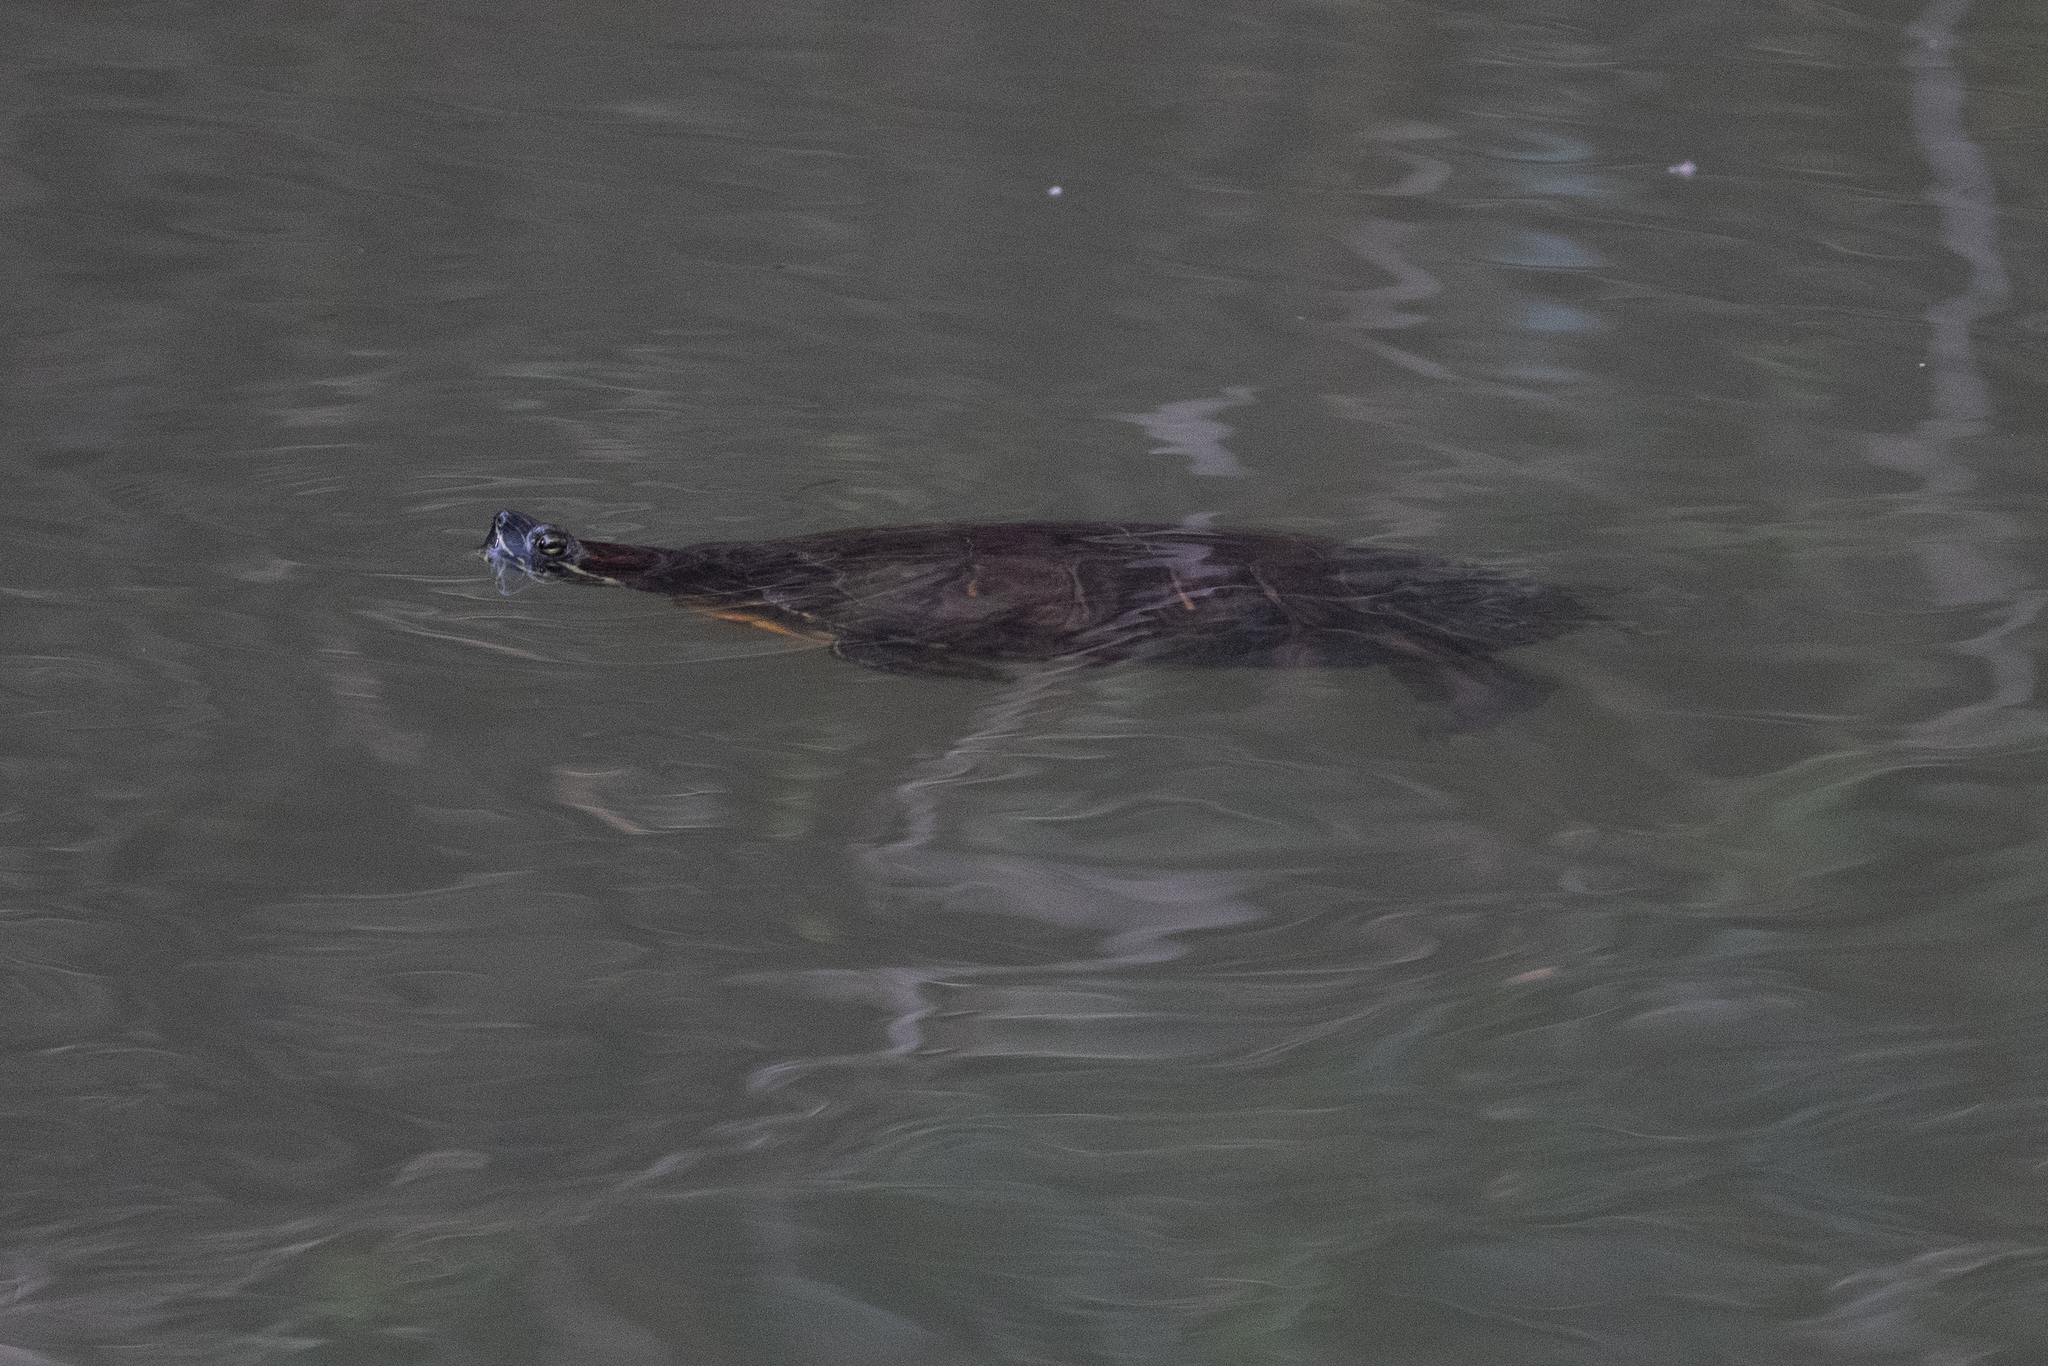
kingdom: Animalia
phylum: Chordata
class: Testudines
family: Emydidae
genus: Trachemys
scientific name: Trachemys scripta
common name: Slider
